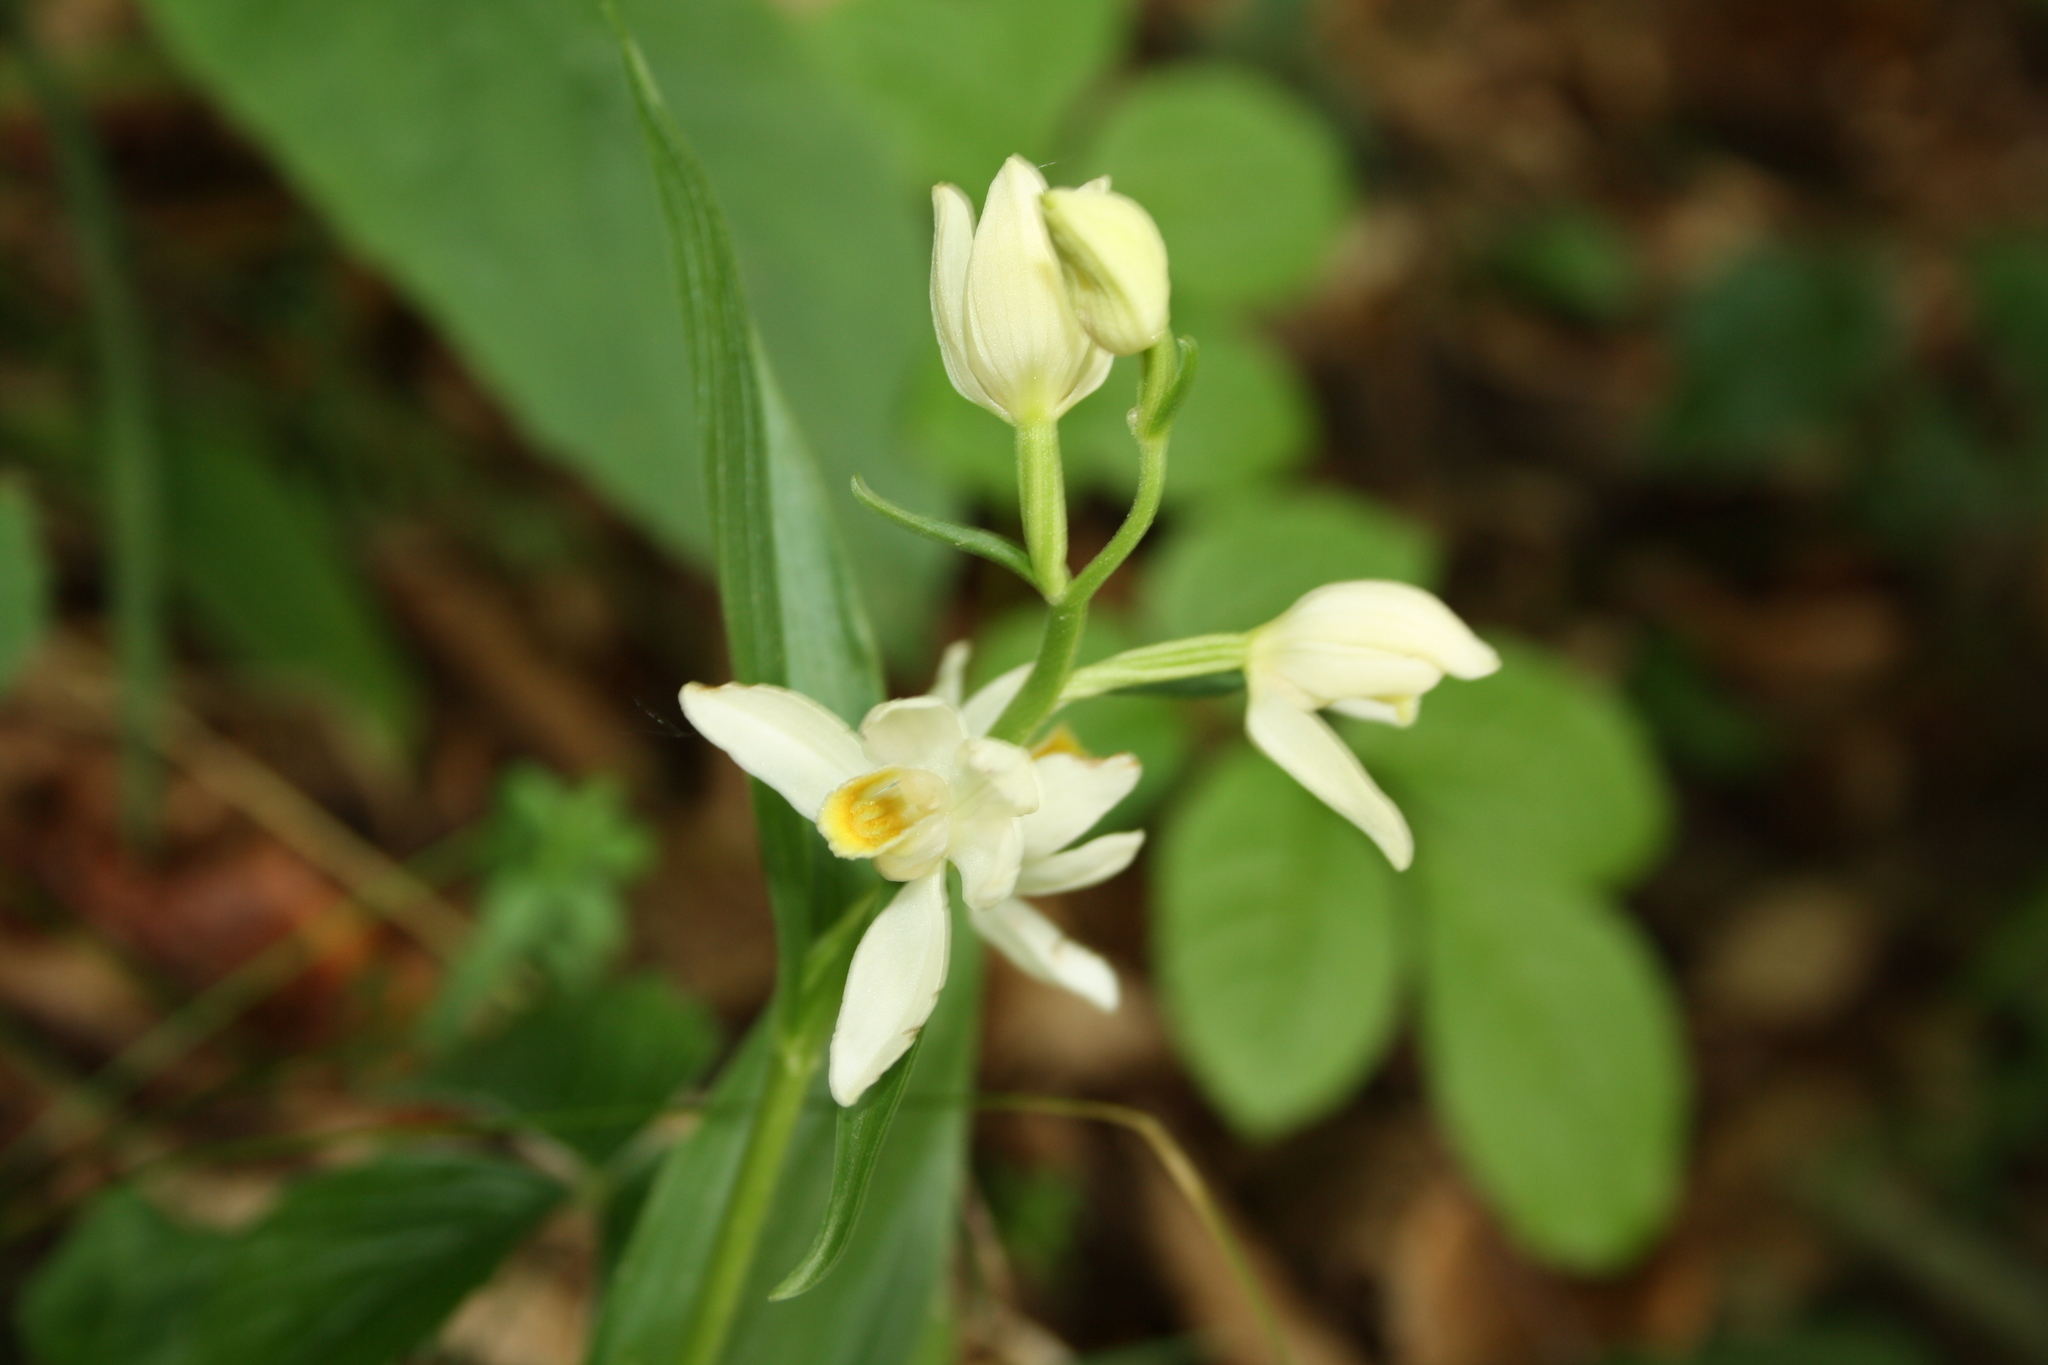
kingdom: Plantae
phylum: Tracheophyta
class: Liliopsida
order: Asparagales
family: Orchidaceae
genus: Cephalanthera
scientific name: Cephalanthera damasonium
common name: White helleborine
